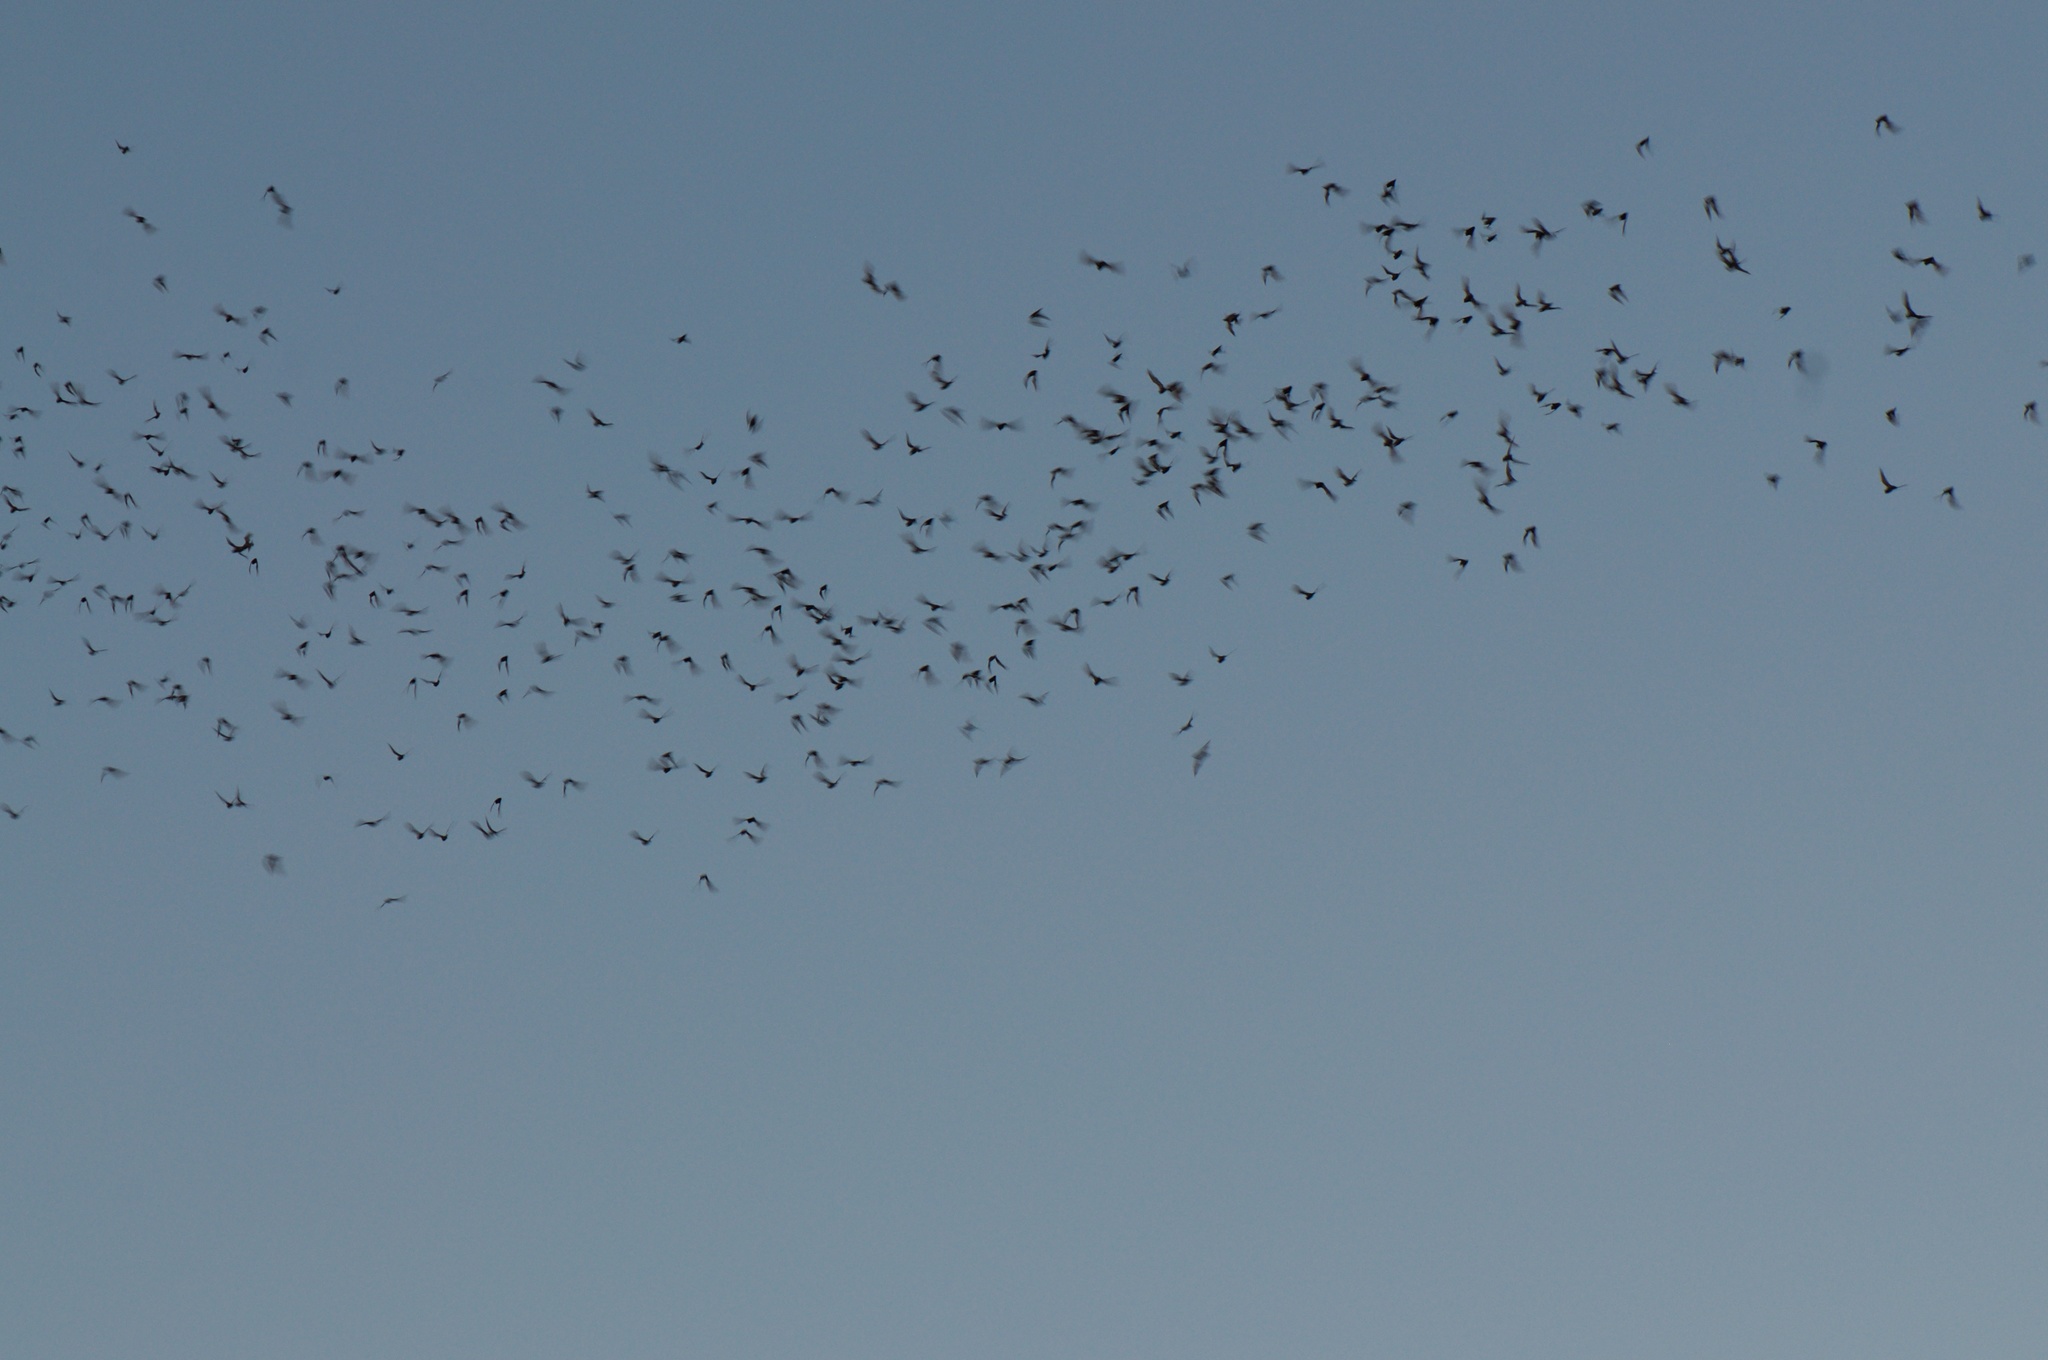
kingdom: Animalia
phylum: Chordata
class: Mammalia
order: Chiroptera
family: Molossidae
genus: Tadarida
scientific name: Tadarida brasiliensis
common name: Mexican free-tailed bat
